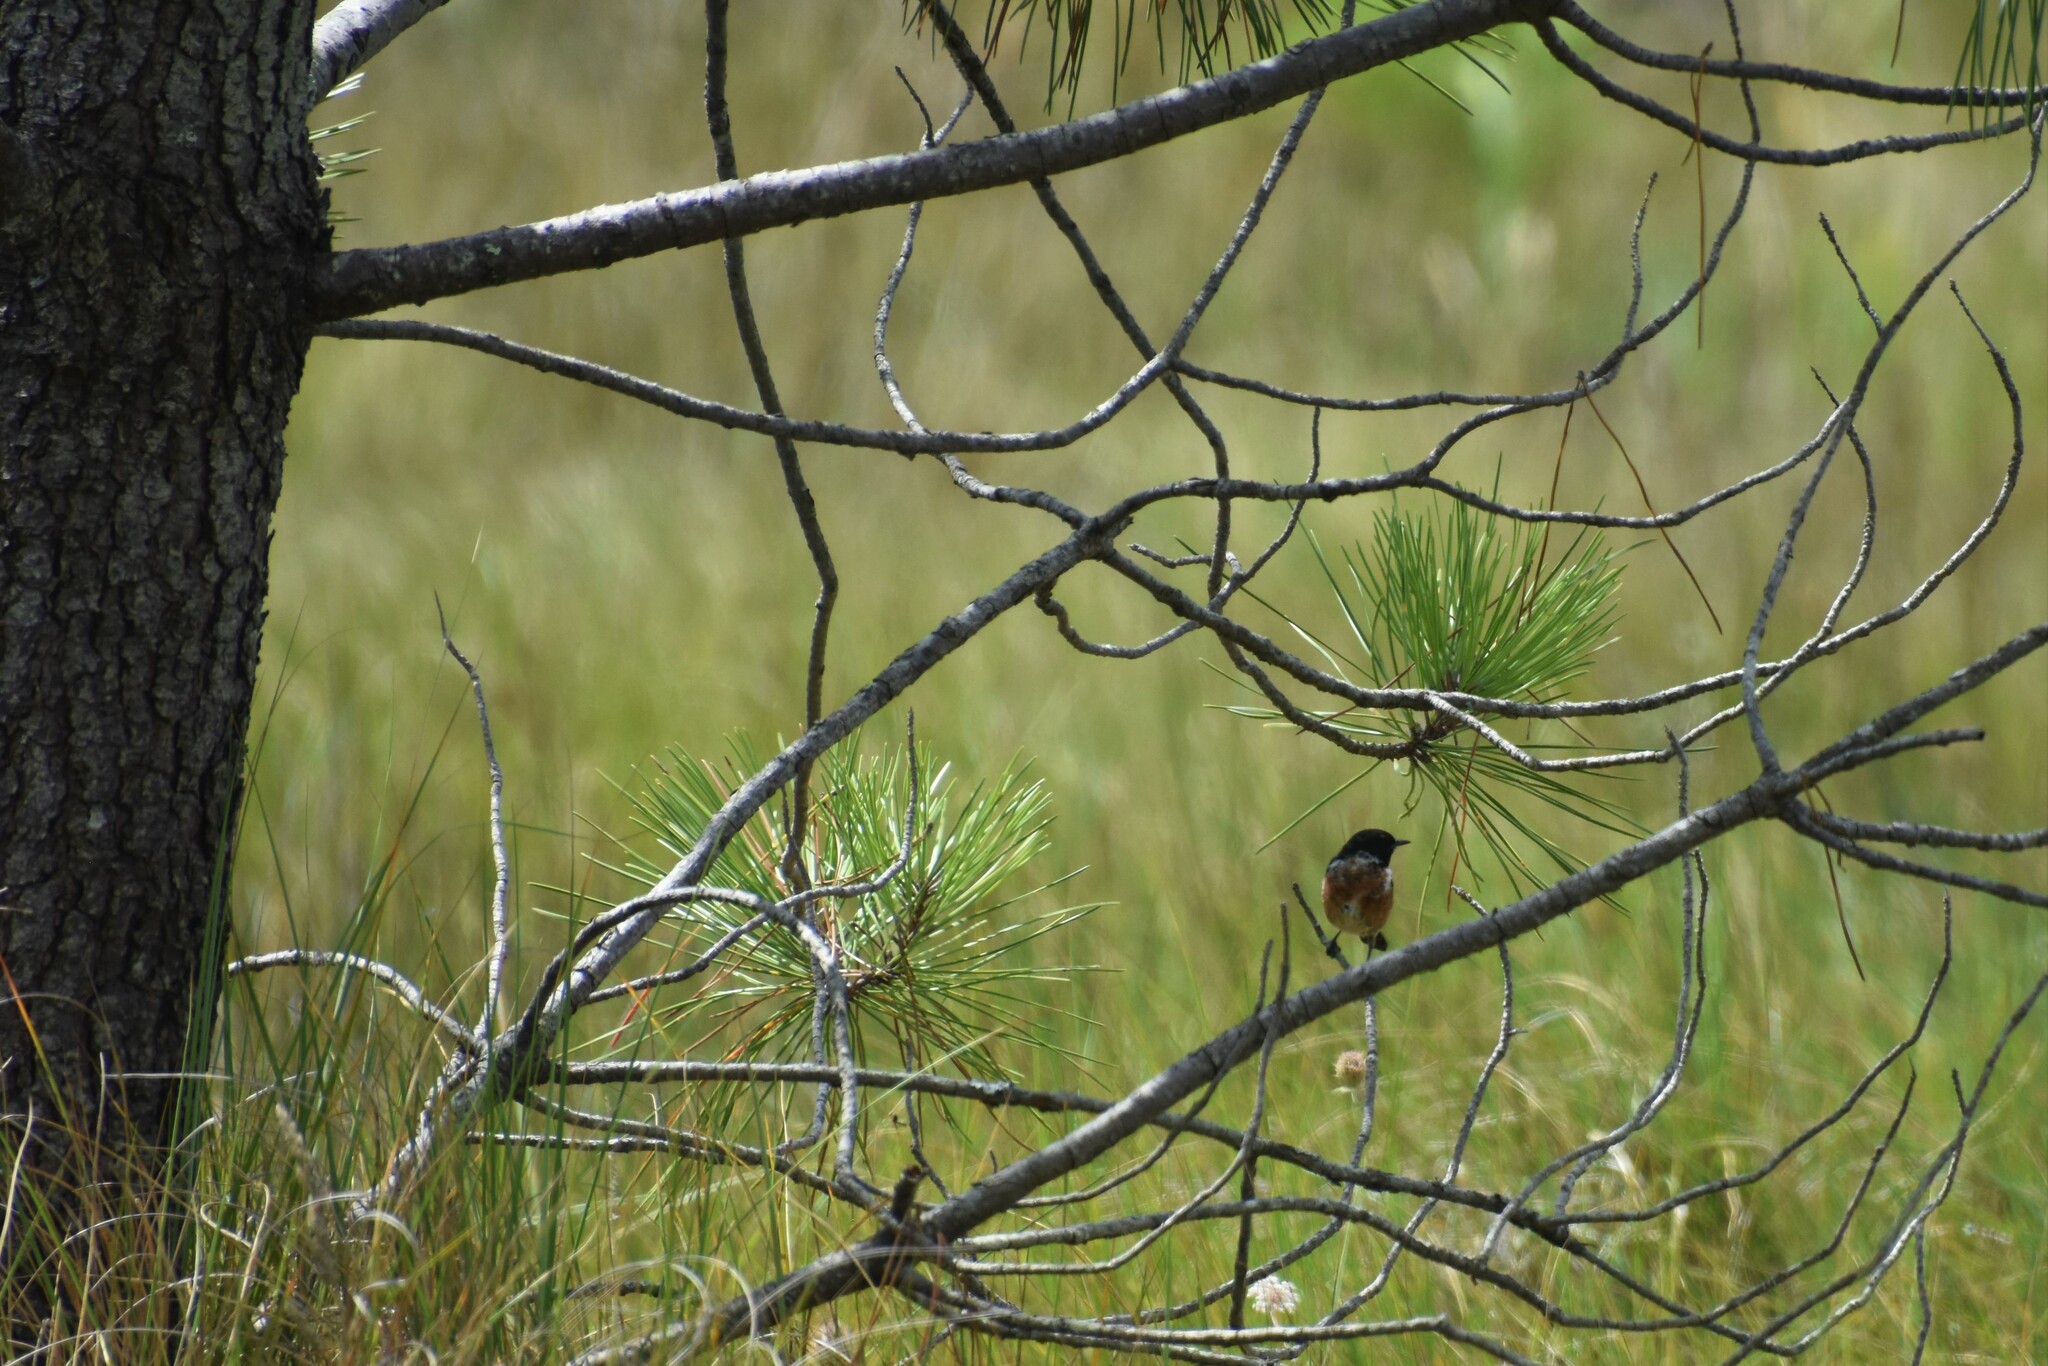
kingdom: Animalia
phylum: Chordata
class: Aves
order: Passeriformes
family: Muscicapidae
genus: Saxicola
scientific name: Saxicola rubicola
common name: European stonechat
